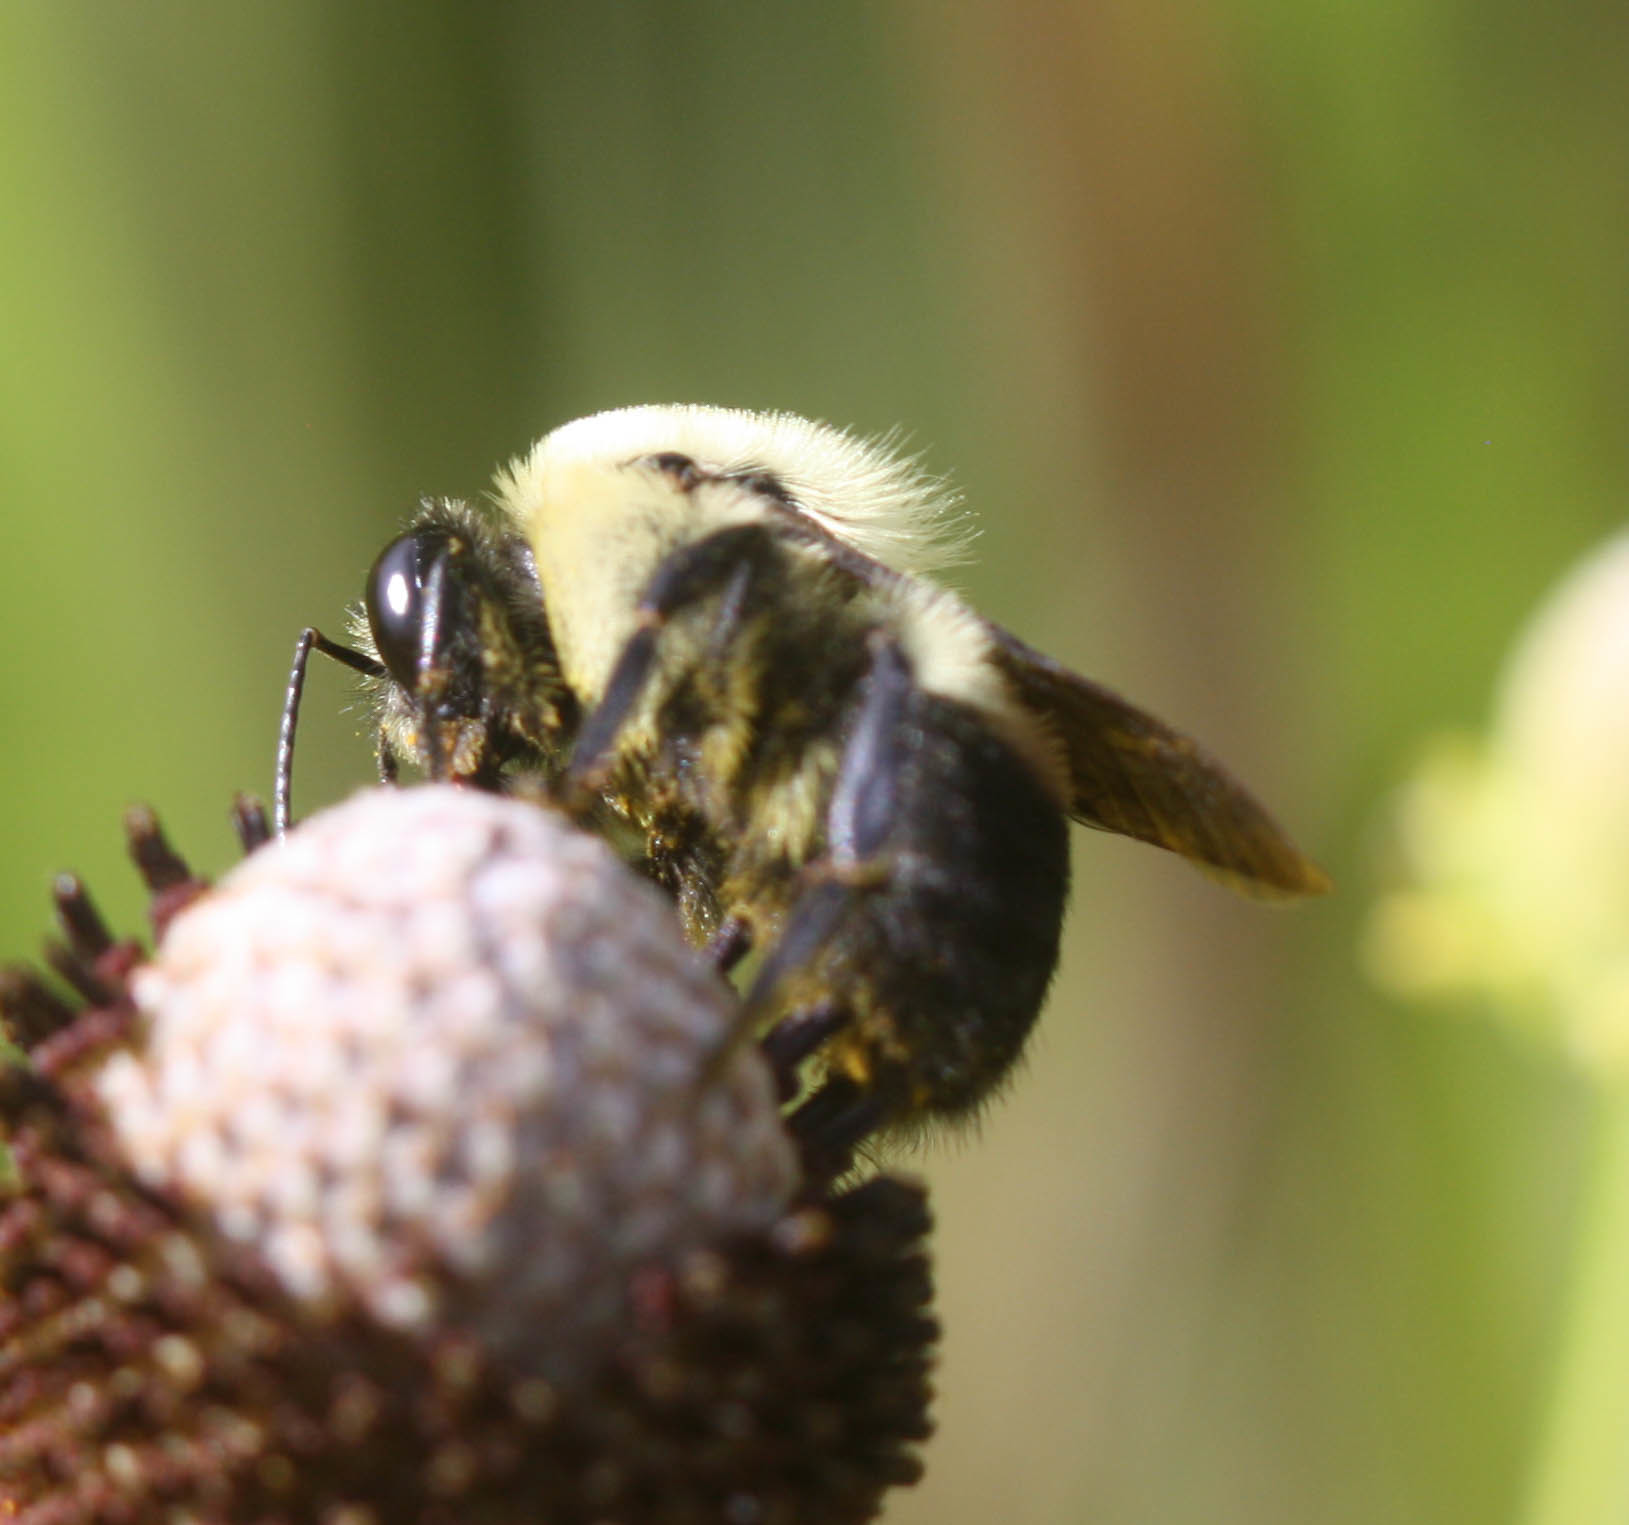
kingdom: Animalia
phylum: Arthropoda
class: Insecta
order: Hymenoptera
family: Apidae
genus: Bombus
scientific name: Bombus griseocollis
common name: Brown-belted bumble bee
